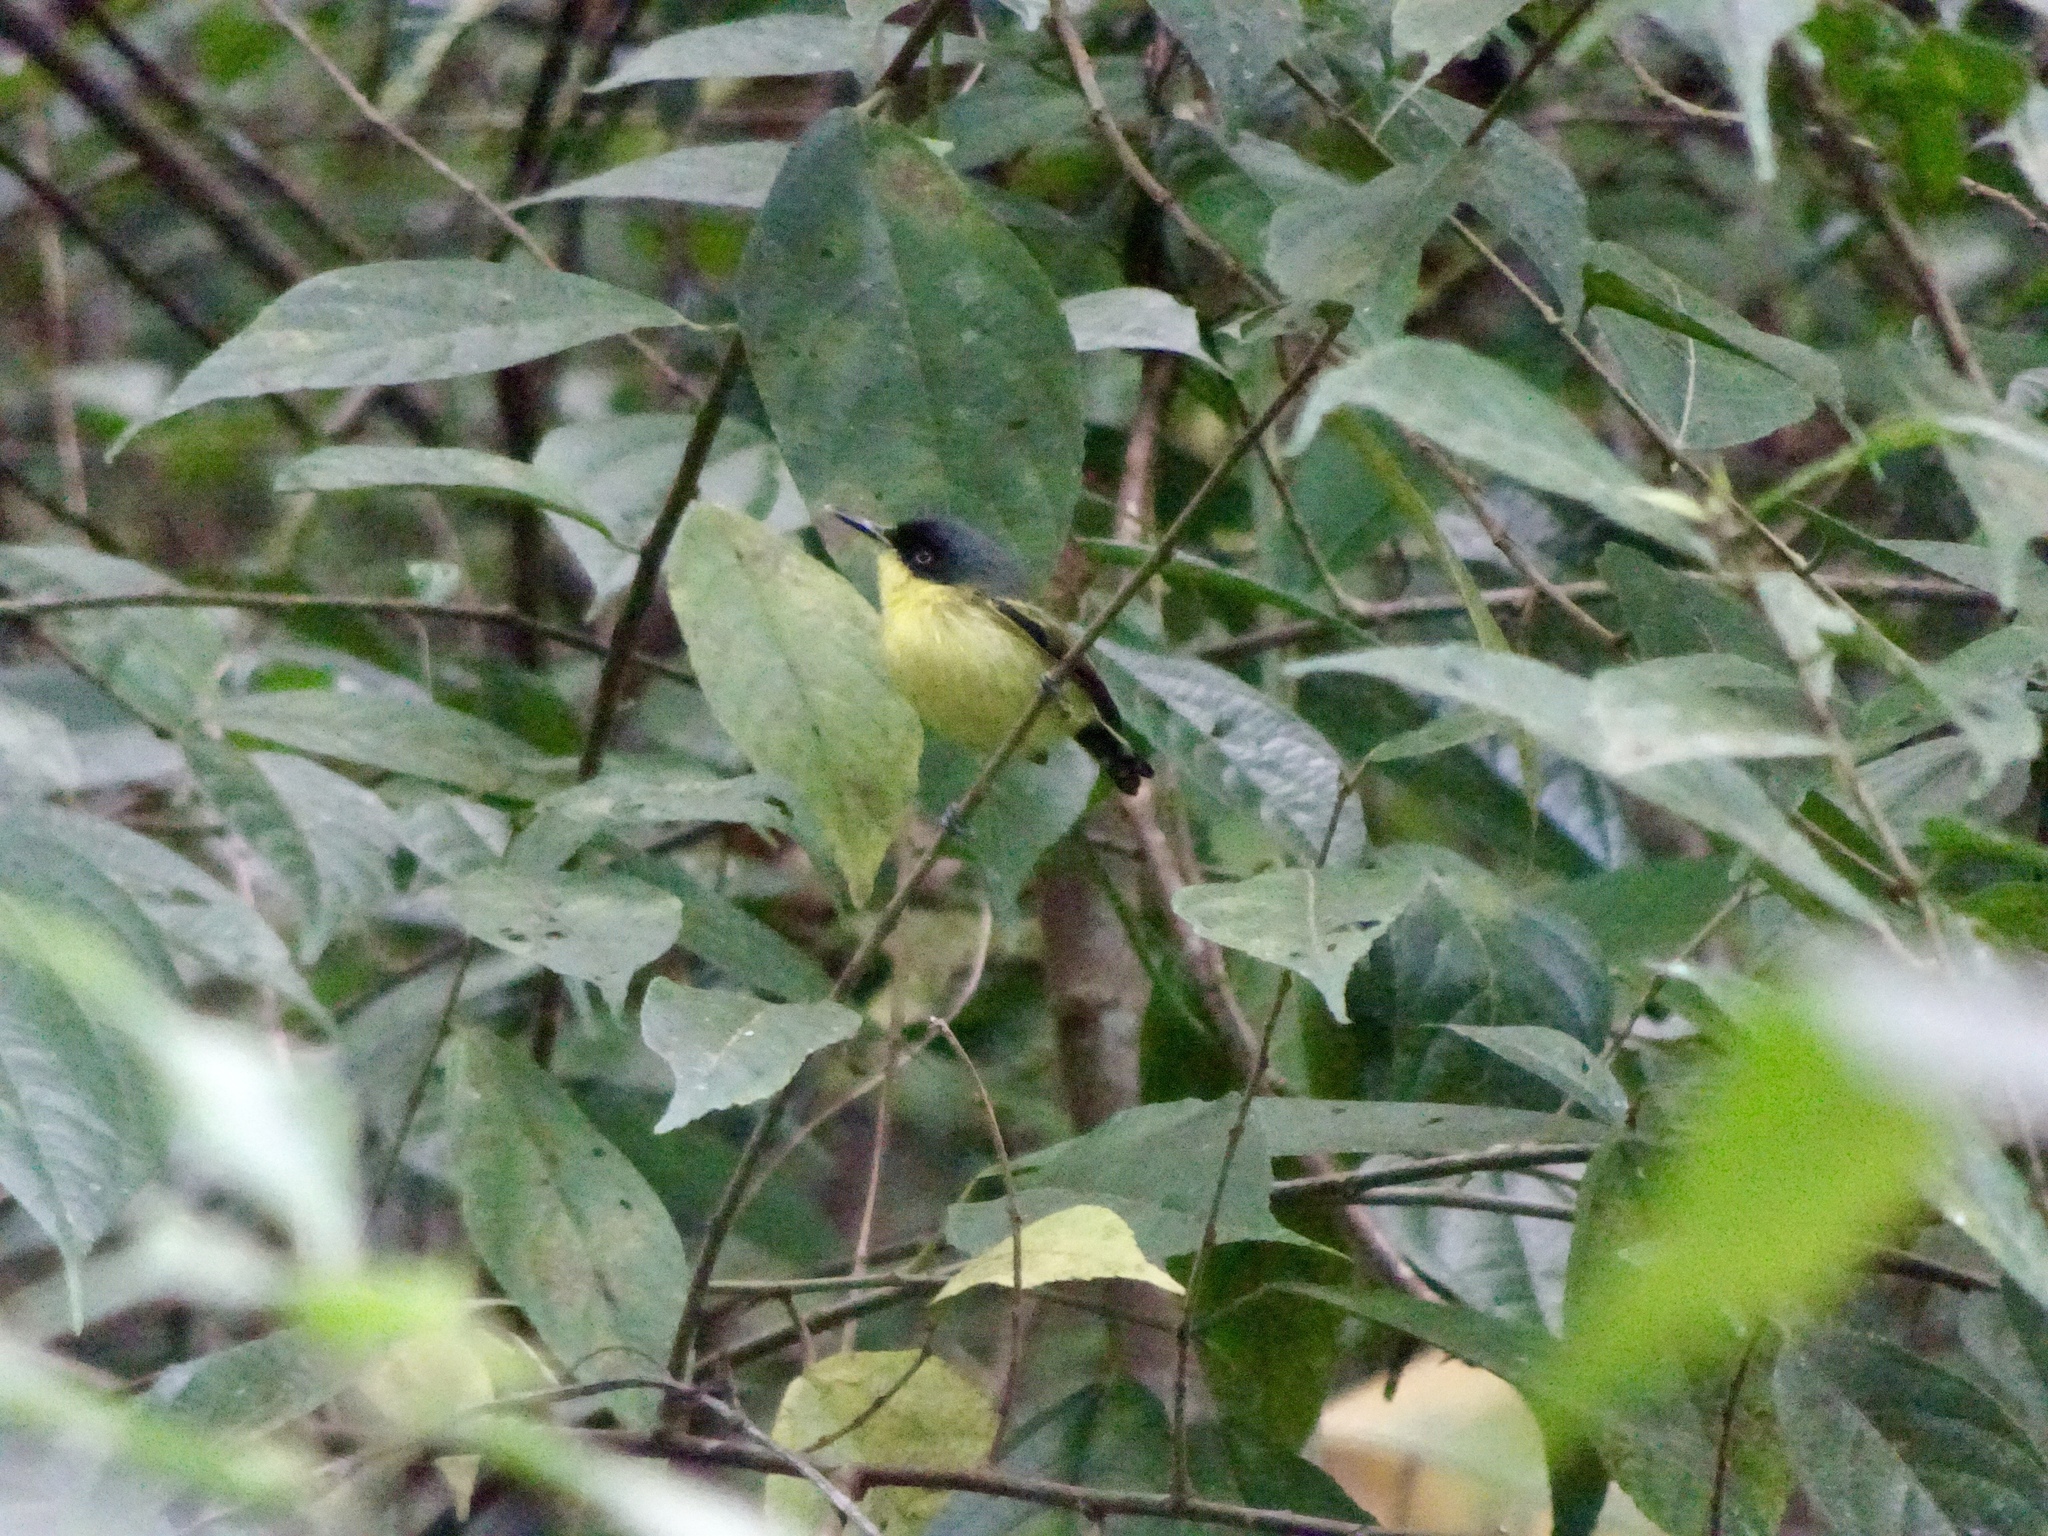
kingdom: Animalia
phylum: Chordata
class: Aves
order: Passeriformes
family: Tyrannidae
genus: Todirostrum
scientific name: Todirostrum cinereum
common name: Common tody-flycatcher
